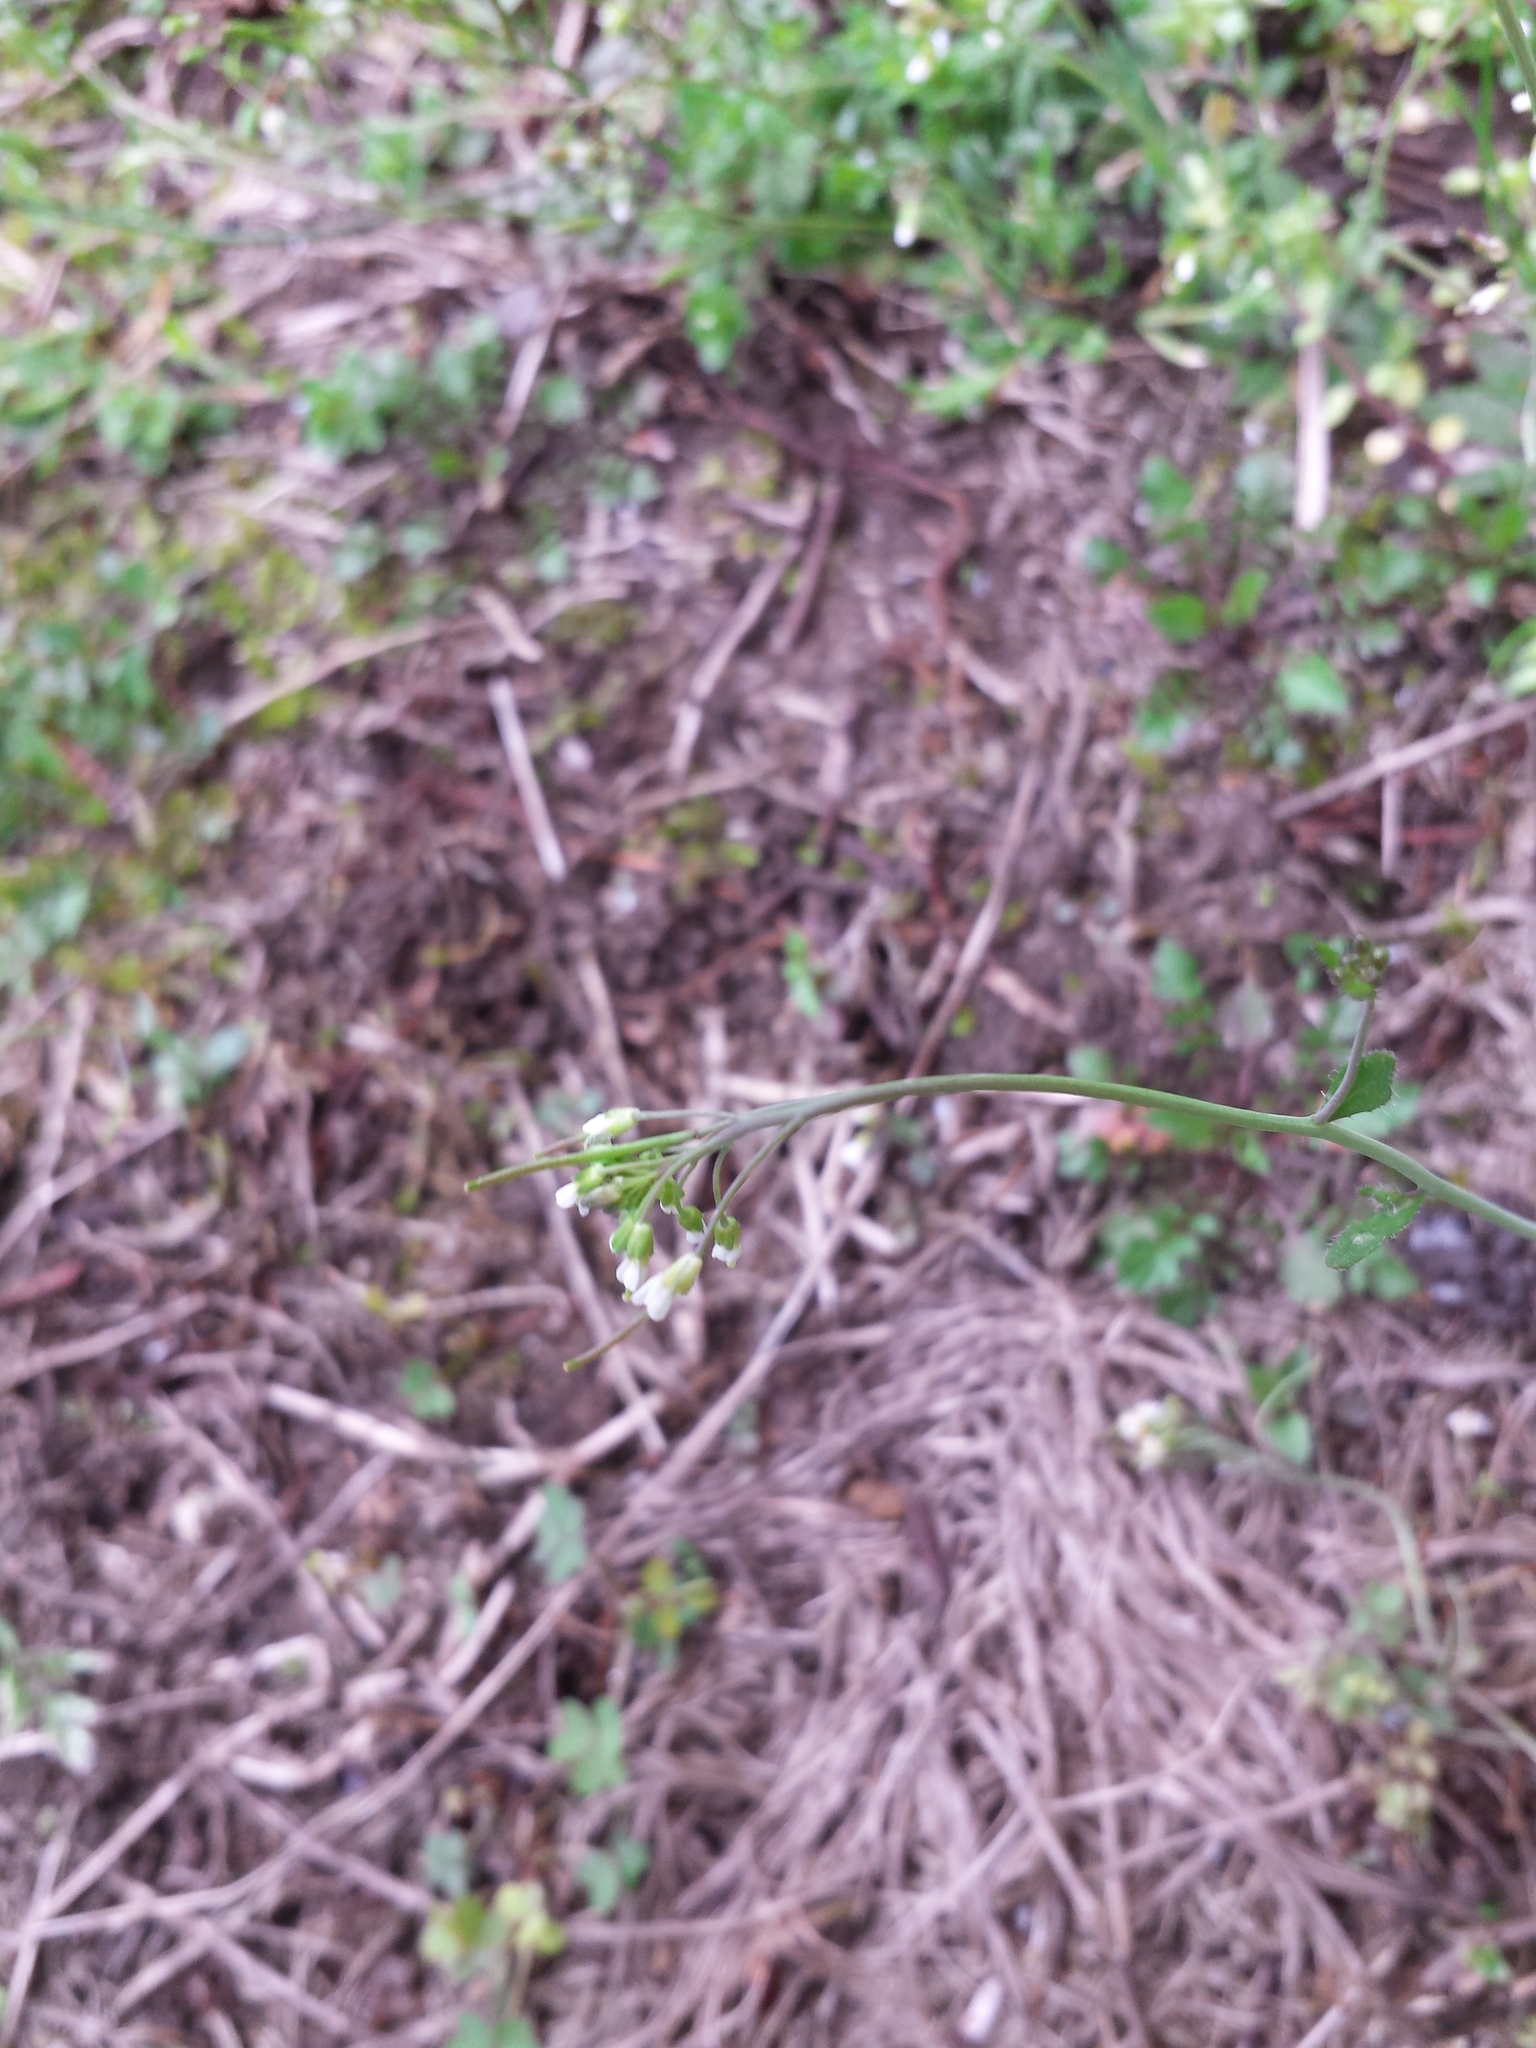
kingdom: Plantae
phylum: Tracheophyta
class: Magnoliopsida
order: Brassicales
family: Brassicaceae
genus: Arabidopsis
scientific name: Arabidopsis thaliana
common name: Thale cress
